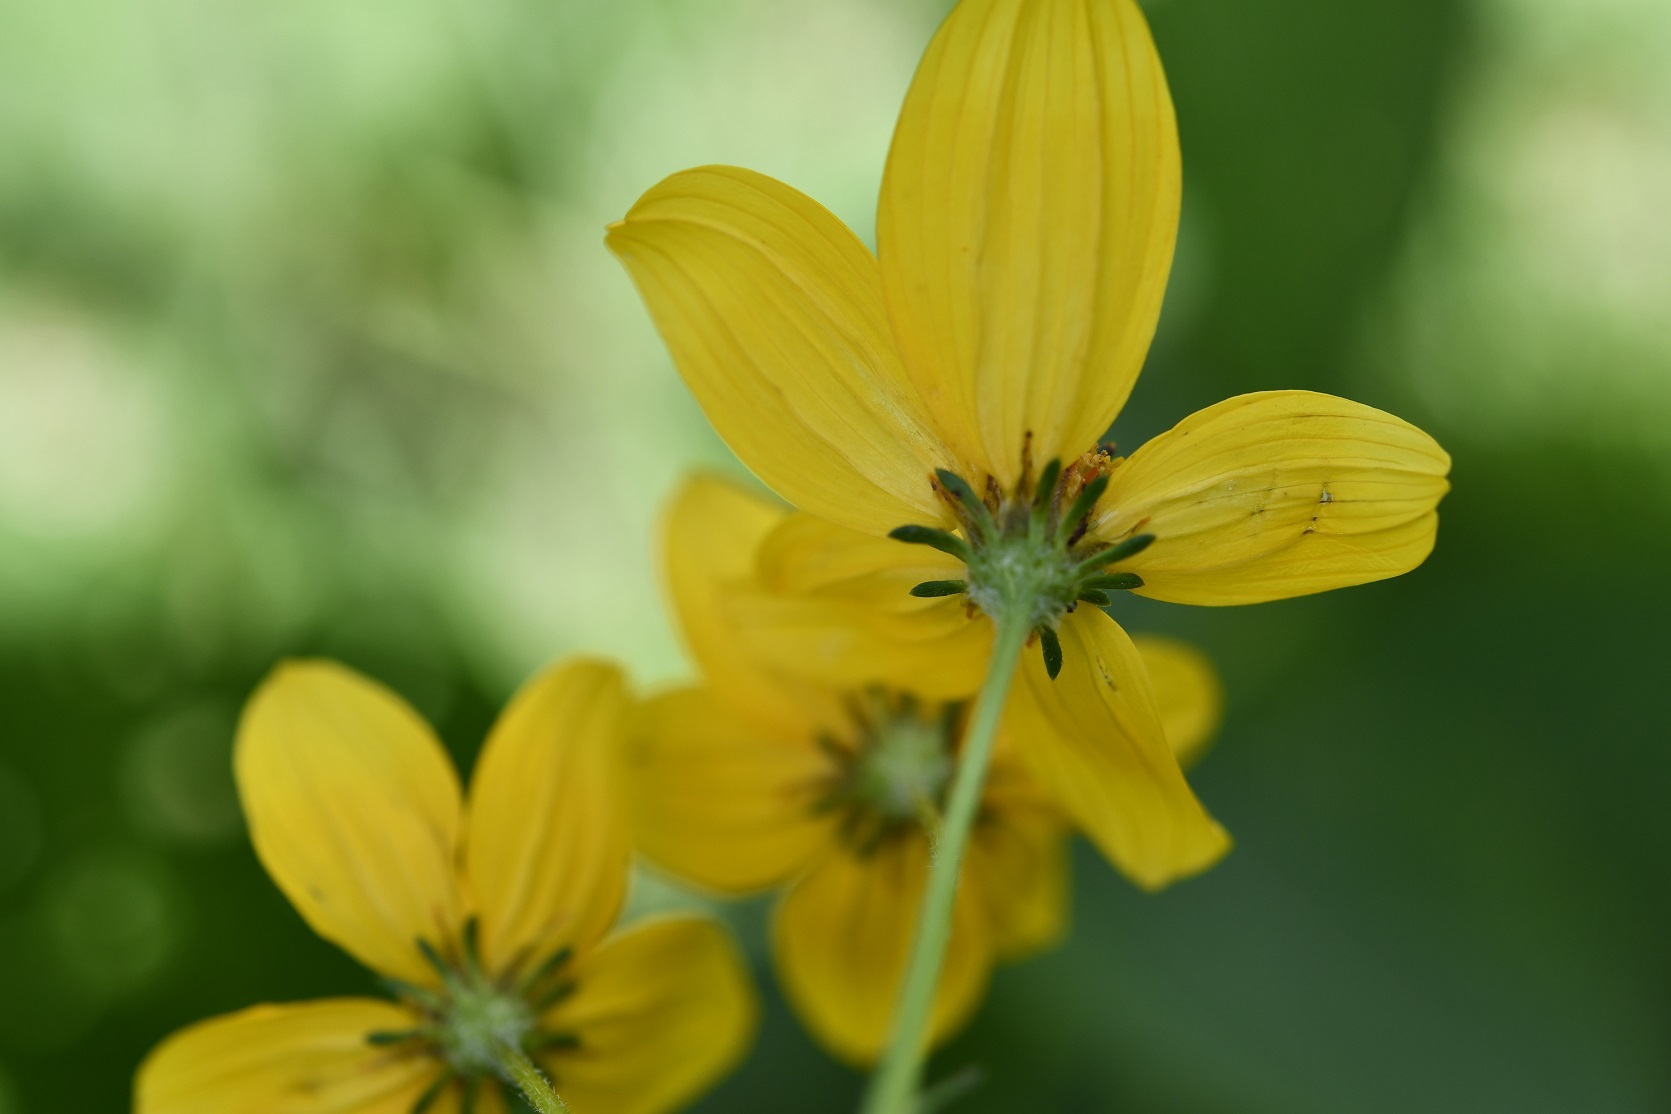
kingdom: Plantae
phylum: Tracheophyta
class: Magnoliopsida
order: Asterales
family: Asteraceae
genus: Bidens
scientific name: Bidens aurea
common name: Arizona beggar-ticks
